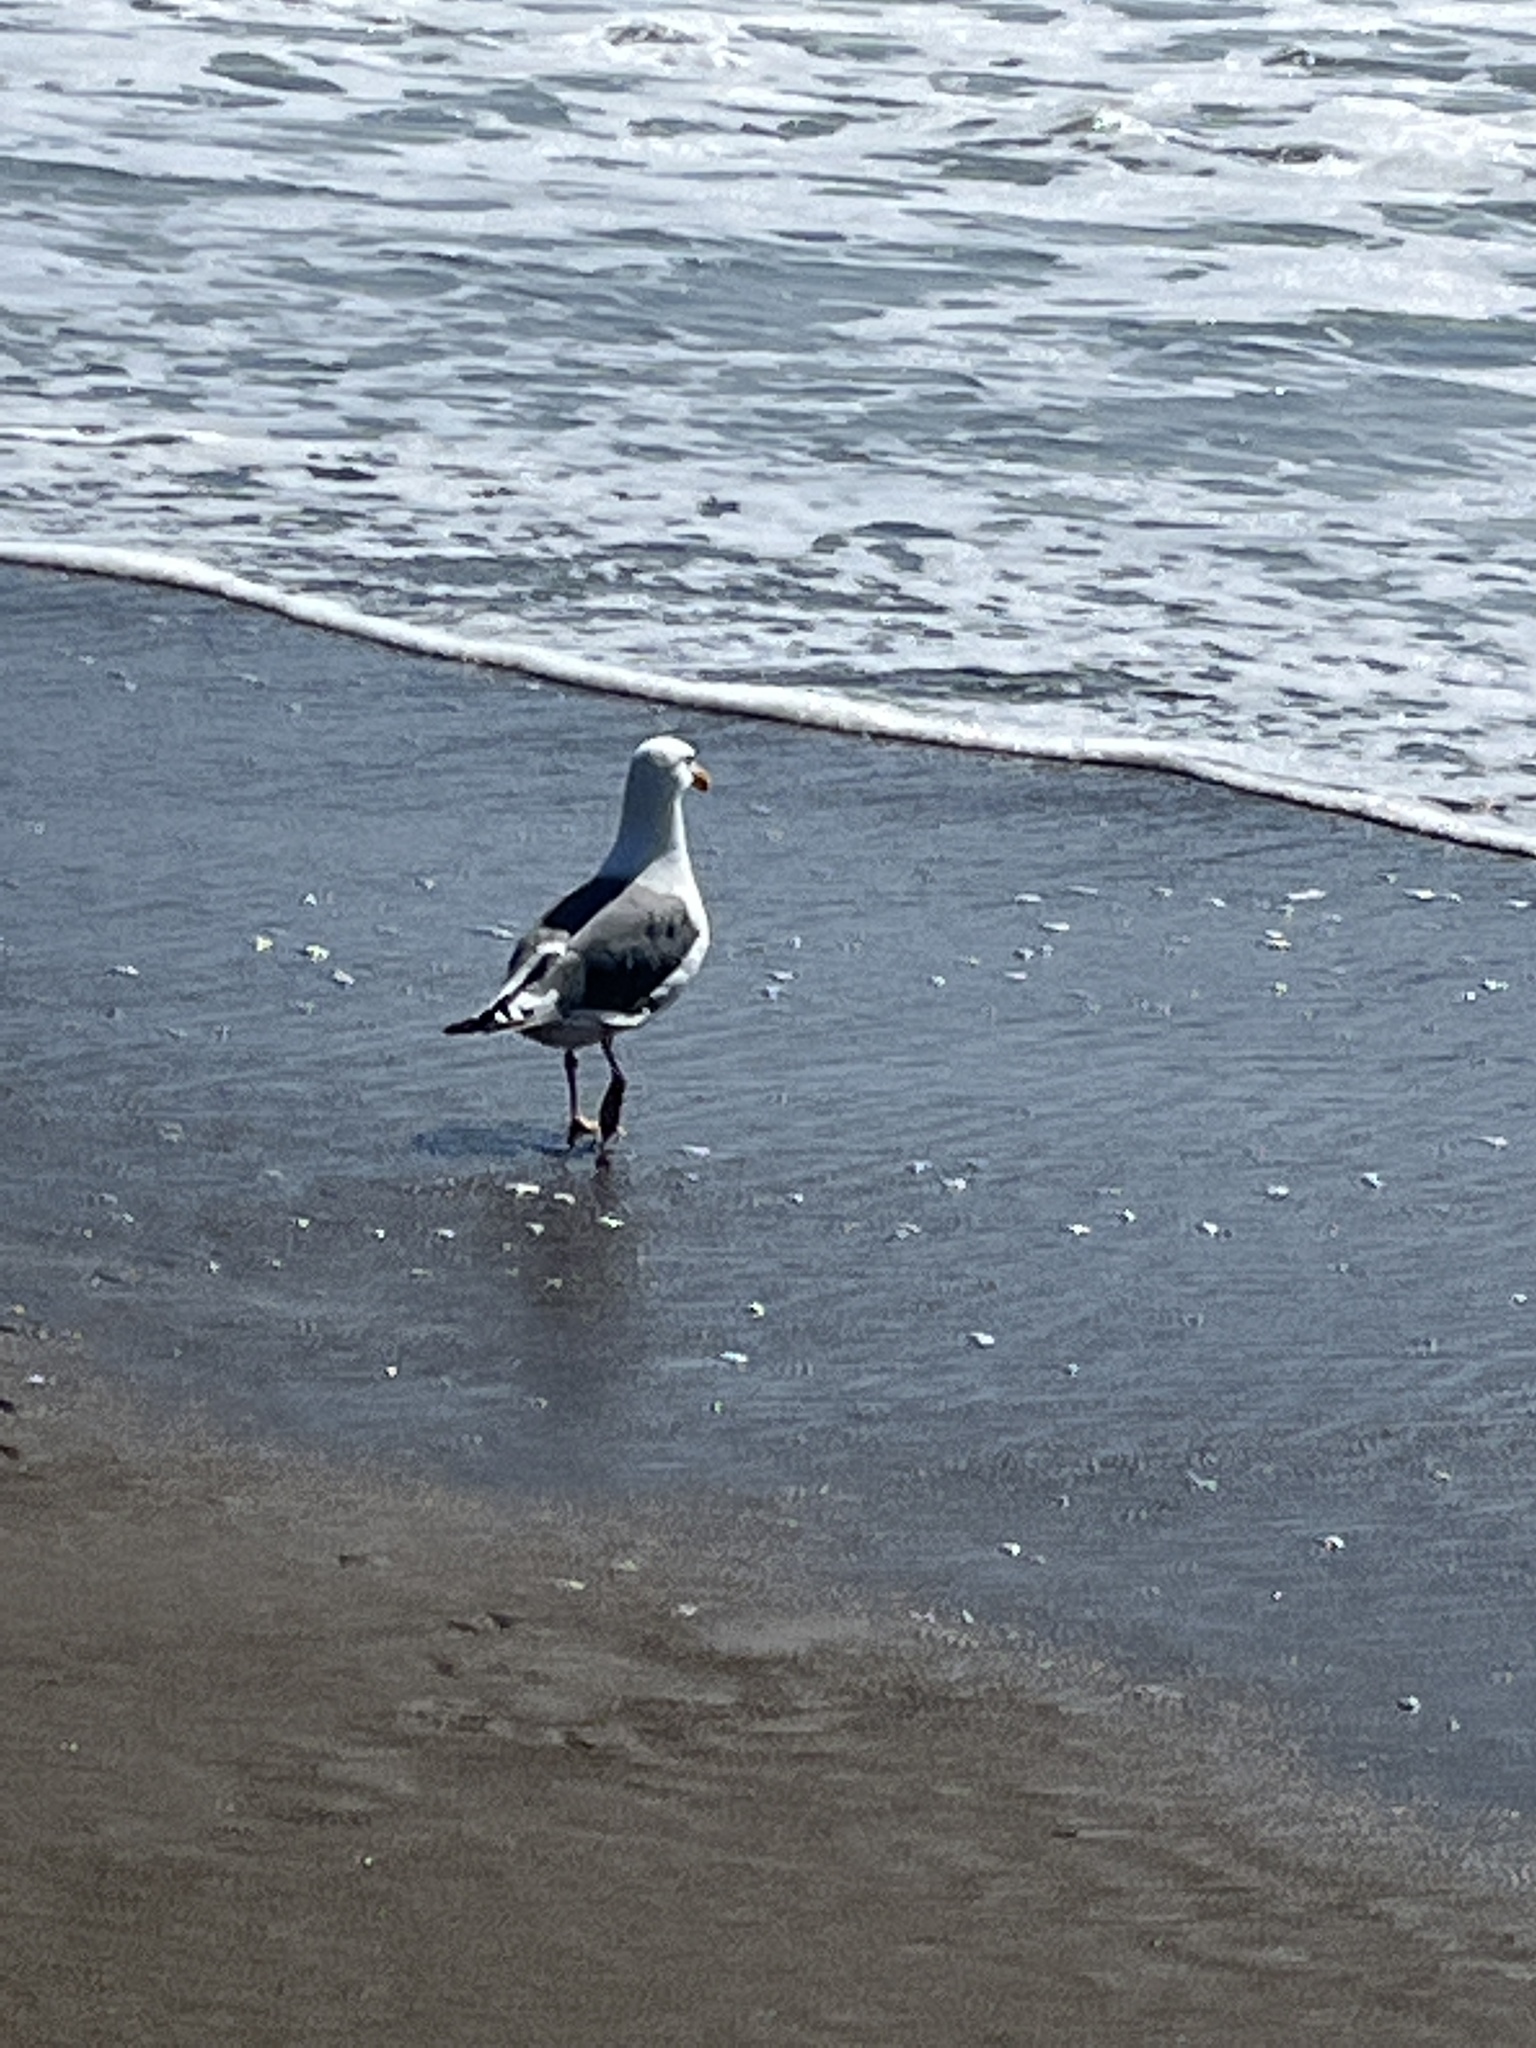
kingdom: Animalia
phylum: Chordata
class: Aves
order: Charadriiformes
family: Laridae
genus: Larus
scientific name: Larus occidentalis
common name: Western gull
